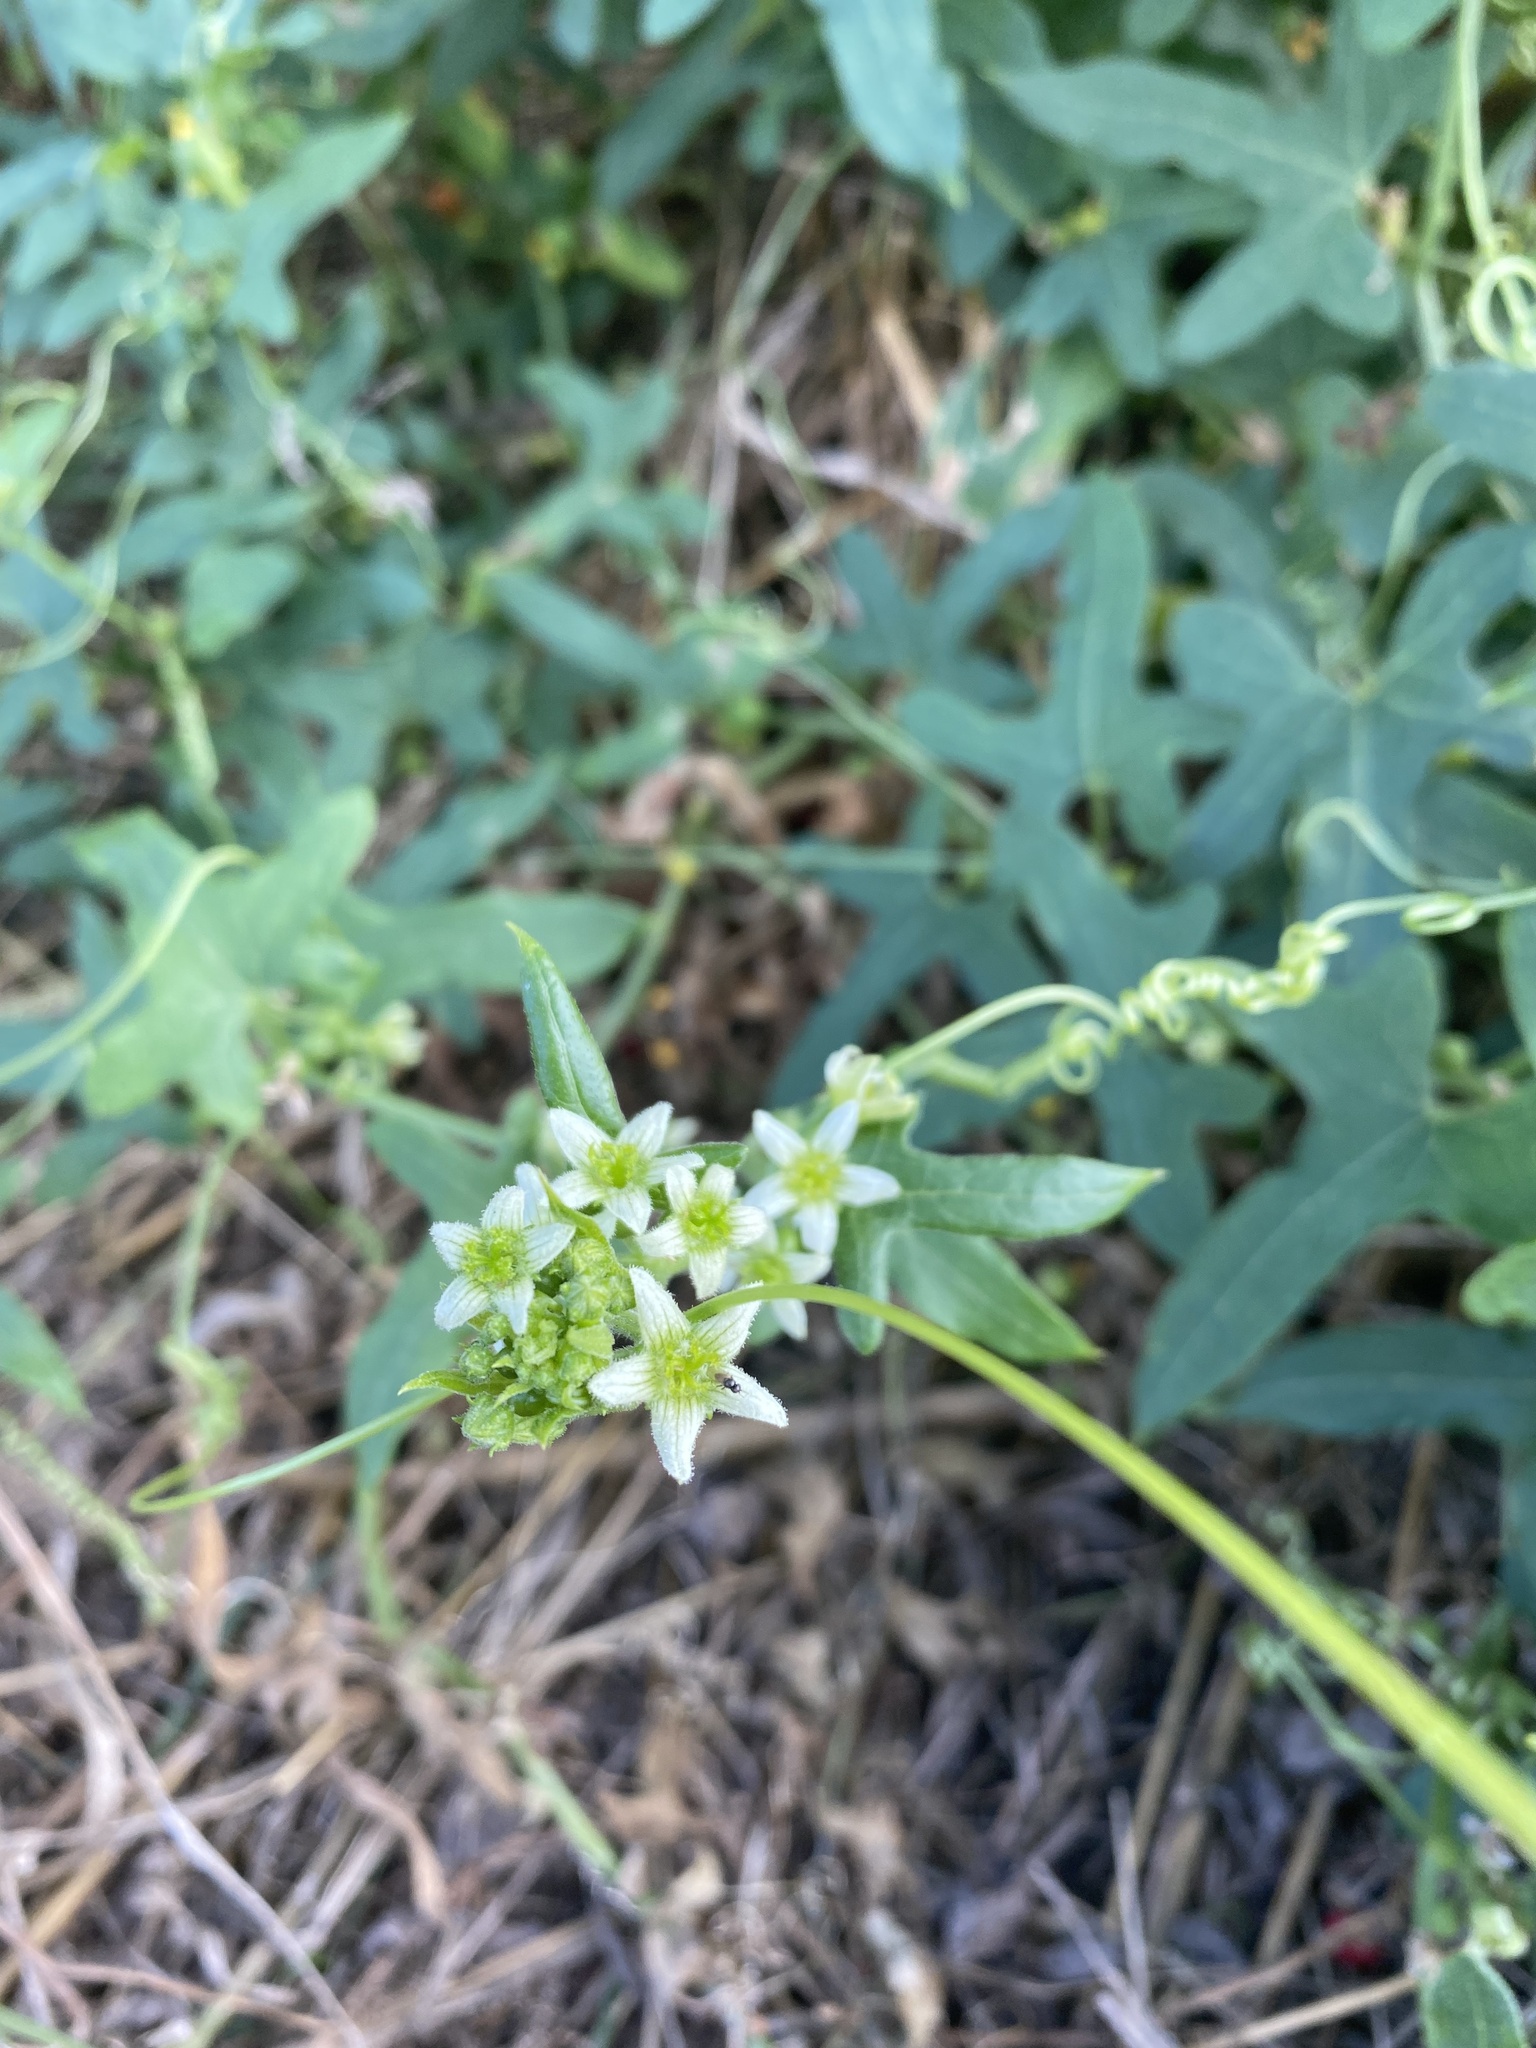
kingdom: Plantae
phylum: Tracheophyta
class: Magnoliopsida
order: Cucurbitales
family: Cucurbitaceae
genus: Bryonia
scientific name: Bryonia cretica
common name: Cretan bryony
